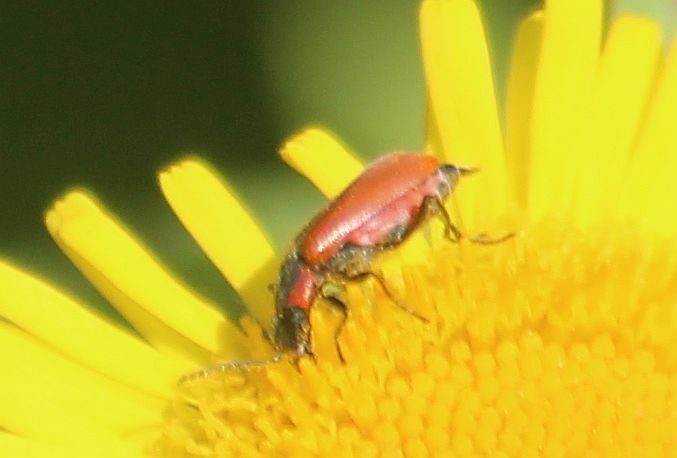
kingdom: Animalia
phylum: Arthropoda
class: Insecta
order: Coleoptera
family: Melyridae
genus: Anthocomus
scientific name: Anthocomus rufus
